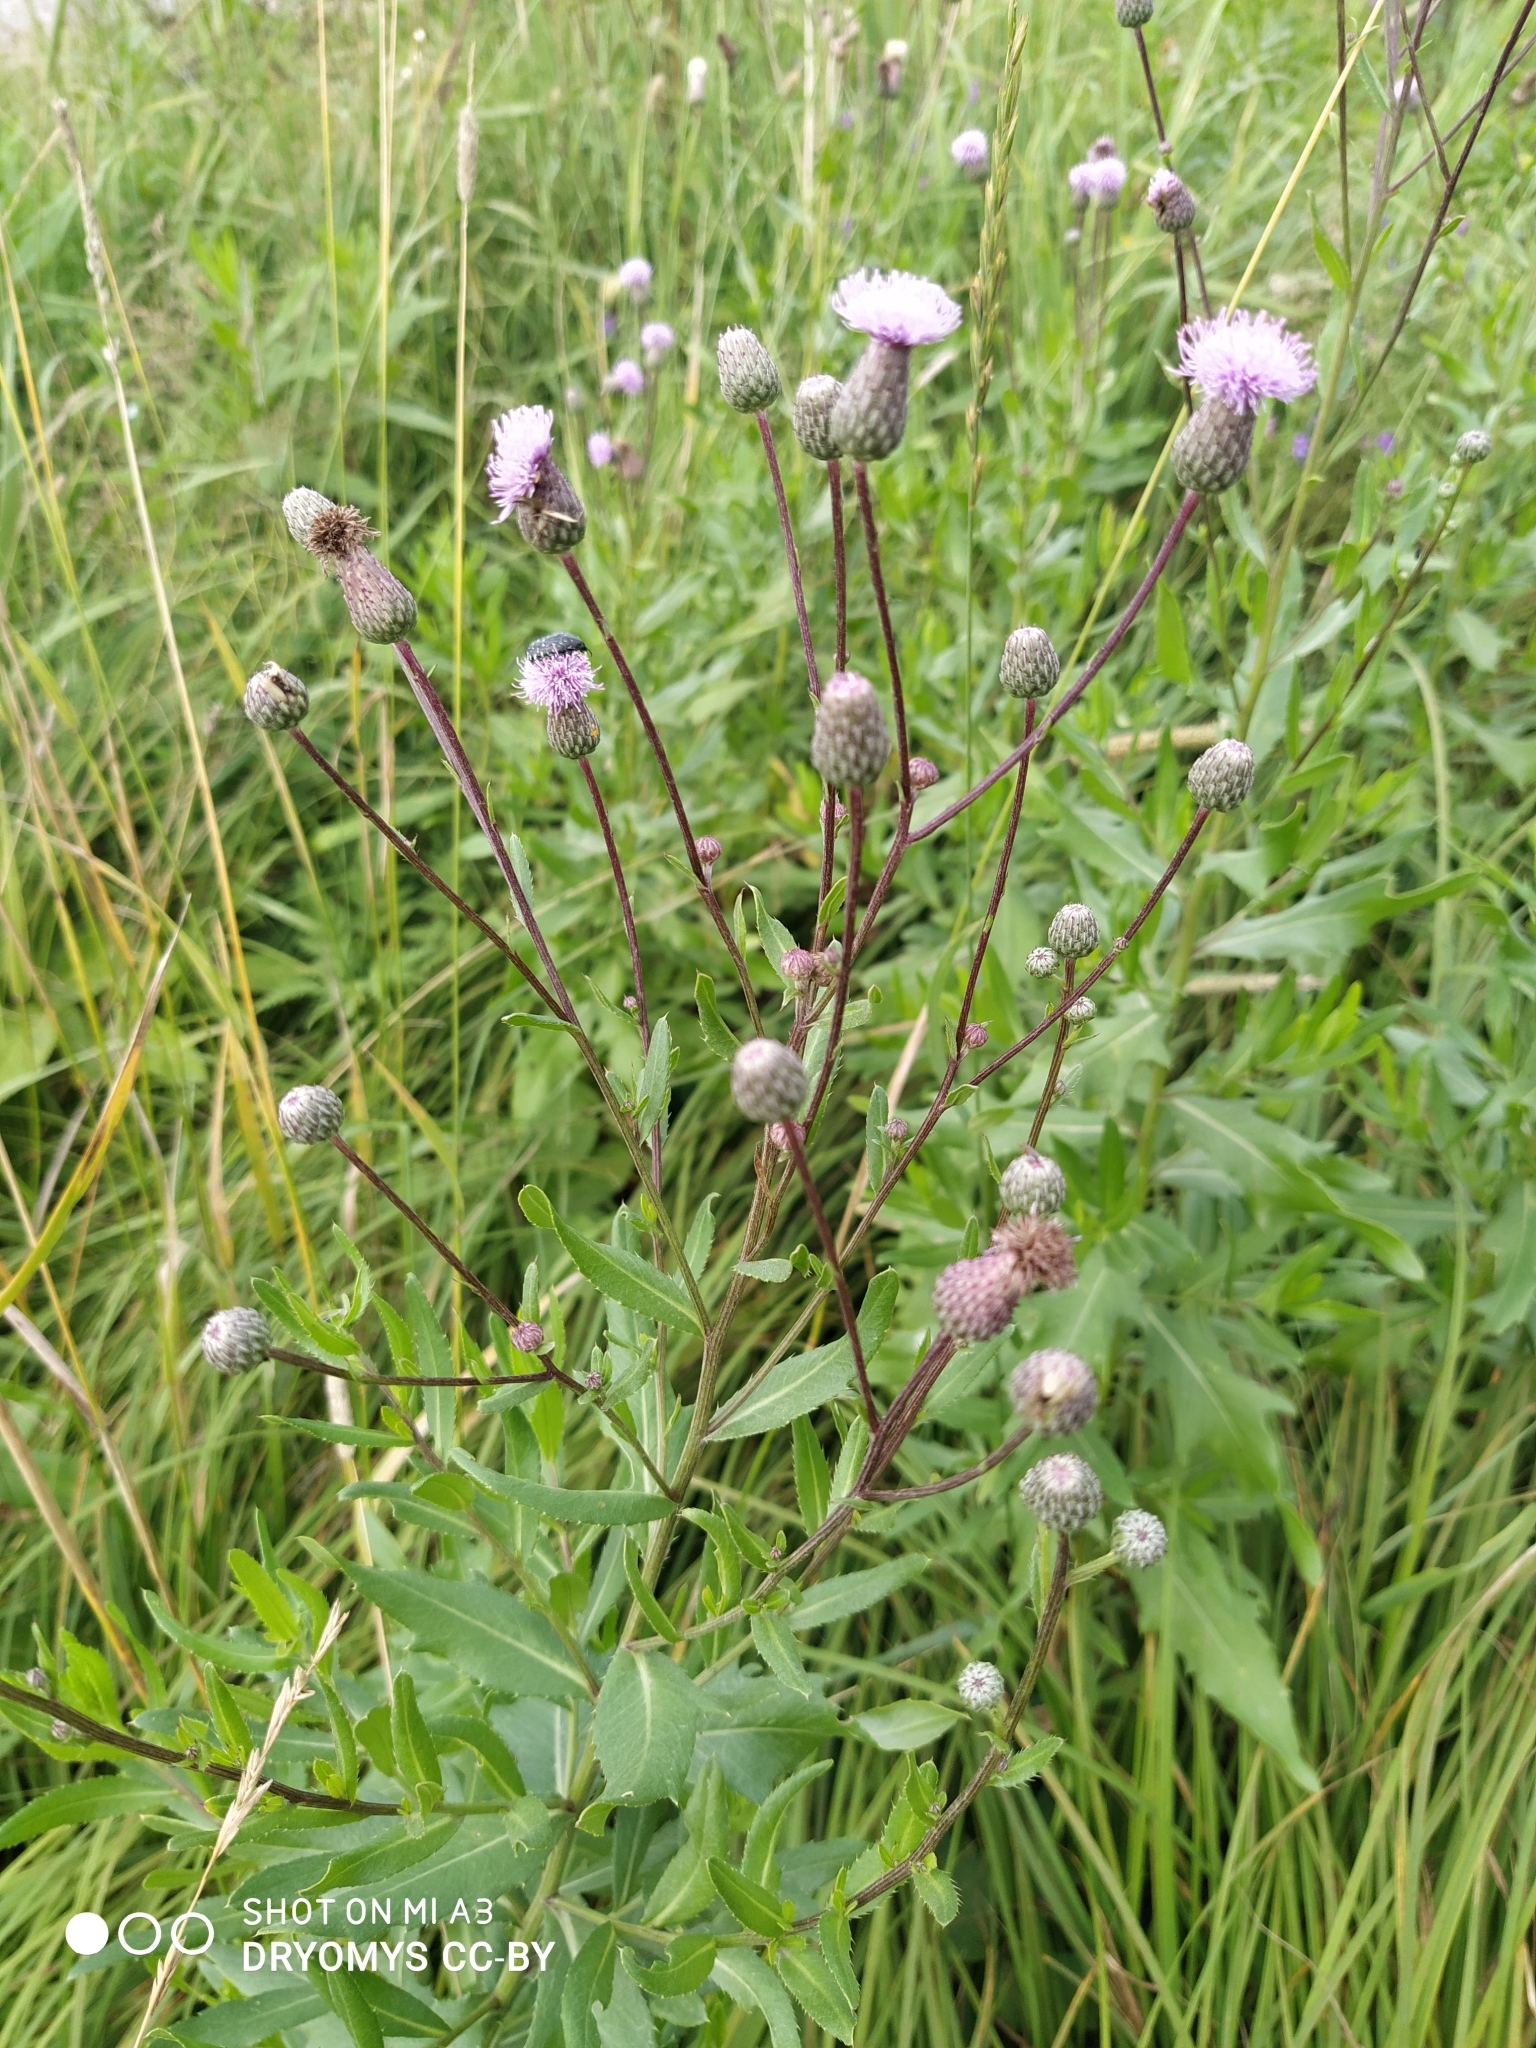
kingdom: Plantae
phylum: Tracheophyta
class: Magnoliopsida
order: Asterales
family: Asteraceae
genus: Cirsium
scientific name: Cirsium arvense
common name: Creeping thistle
